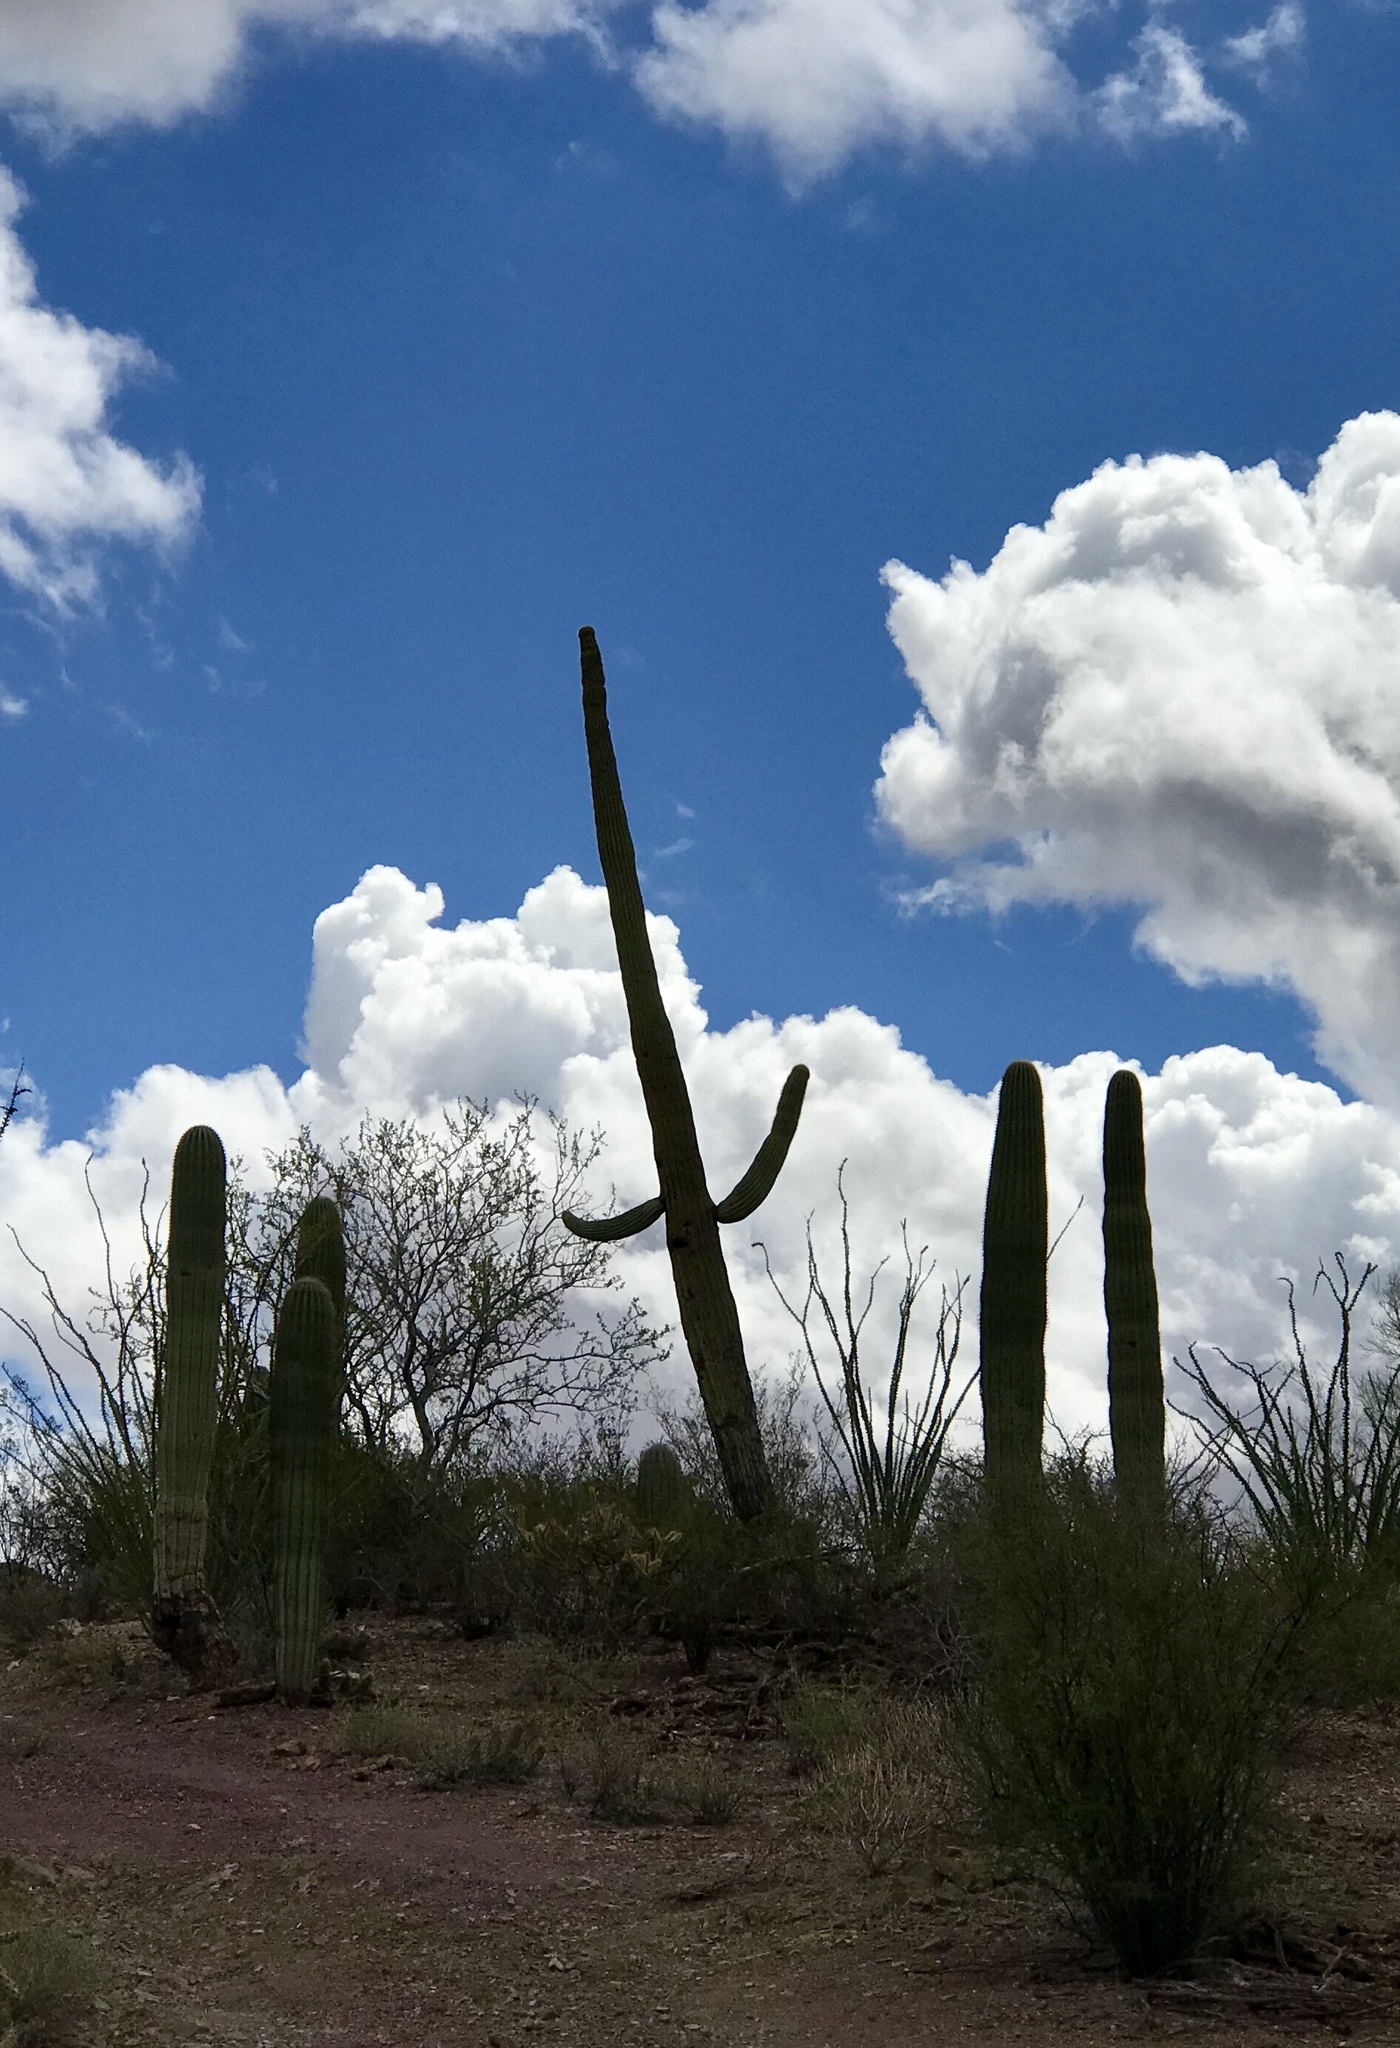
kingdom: Plantae
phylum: Tracheophyta
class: Magnoliopsida
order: Caryophyllales
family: Cactaceae
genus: Carnegiea
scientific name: Carnegiea gigantea
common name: Saguaro
